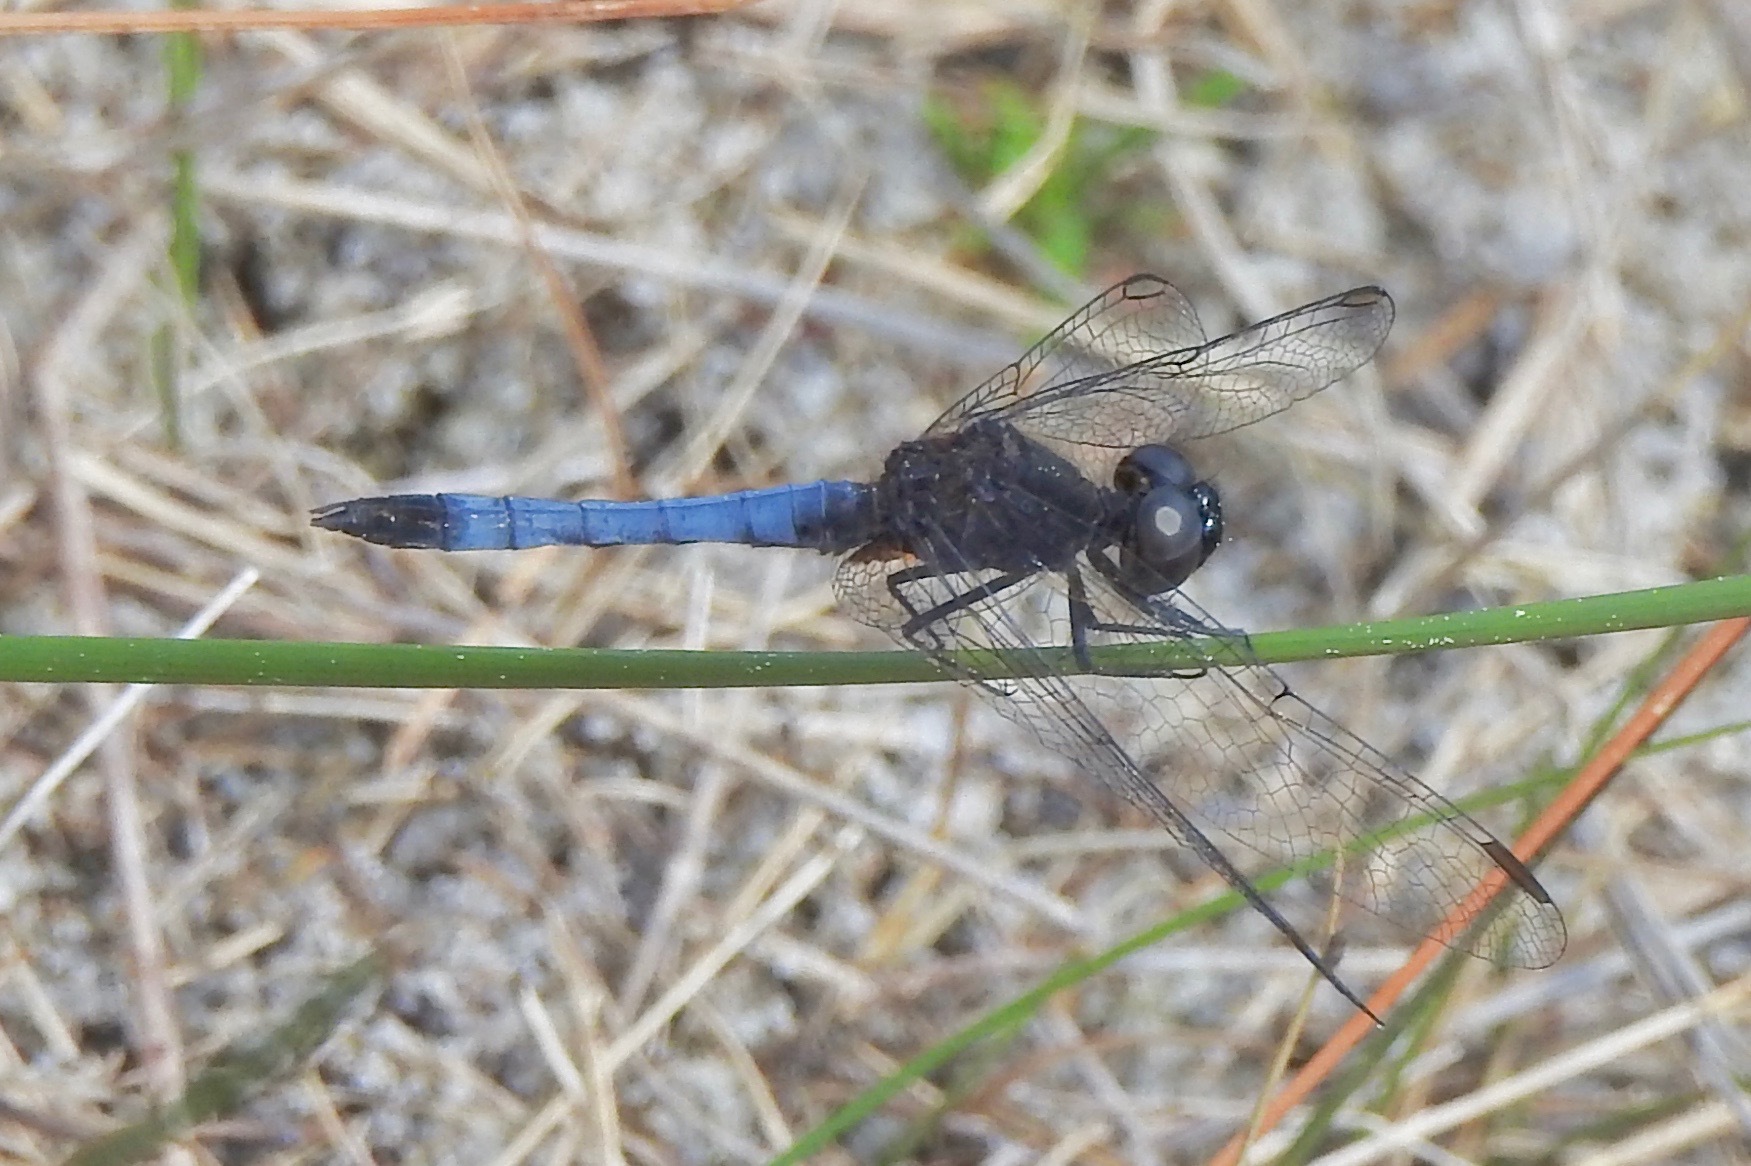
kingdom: Animalia
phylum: Arthropoda
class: Insecta
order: Odonata
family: Libellulidae
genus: Erythrodiplax
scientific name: Erythrodiplax minuscula
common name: Little blue dragonlet
